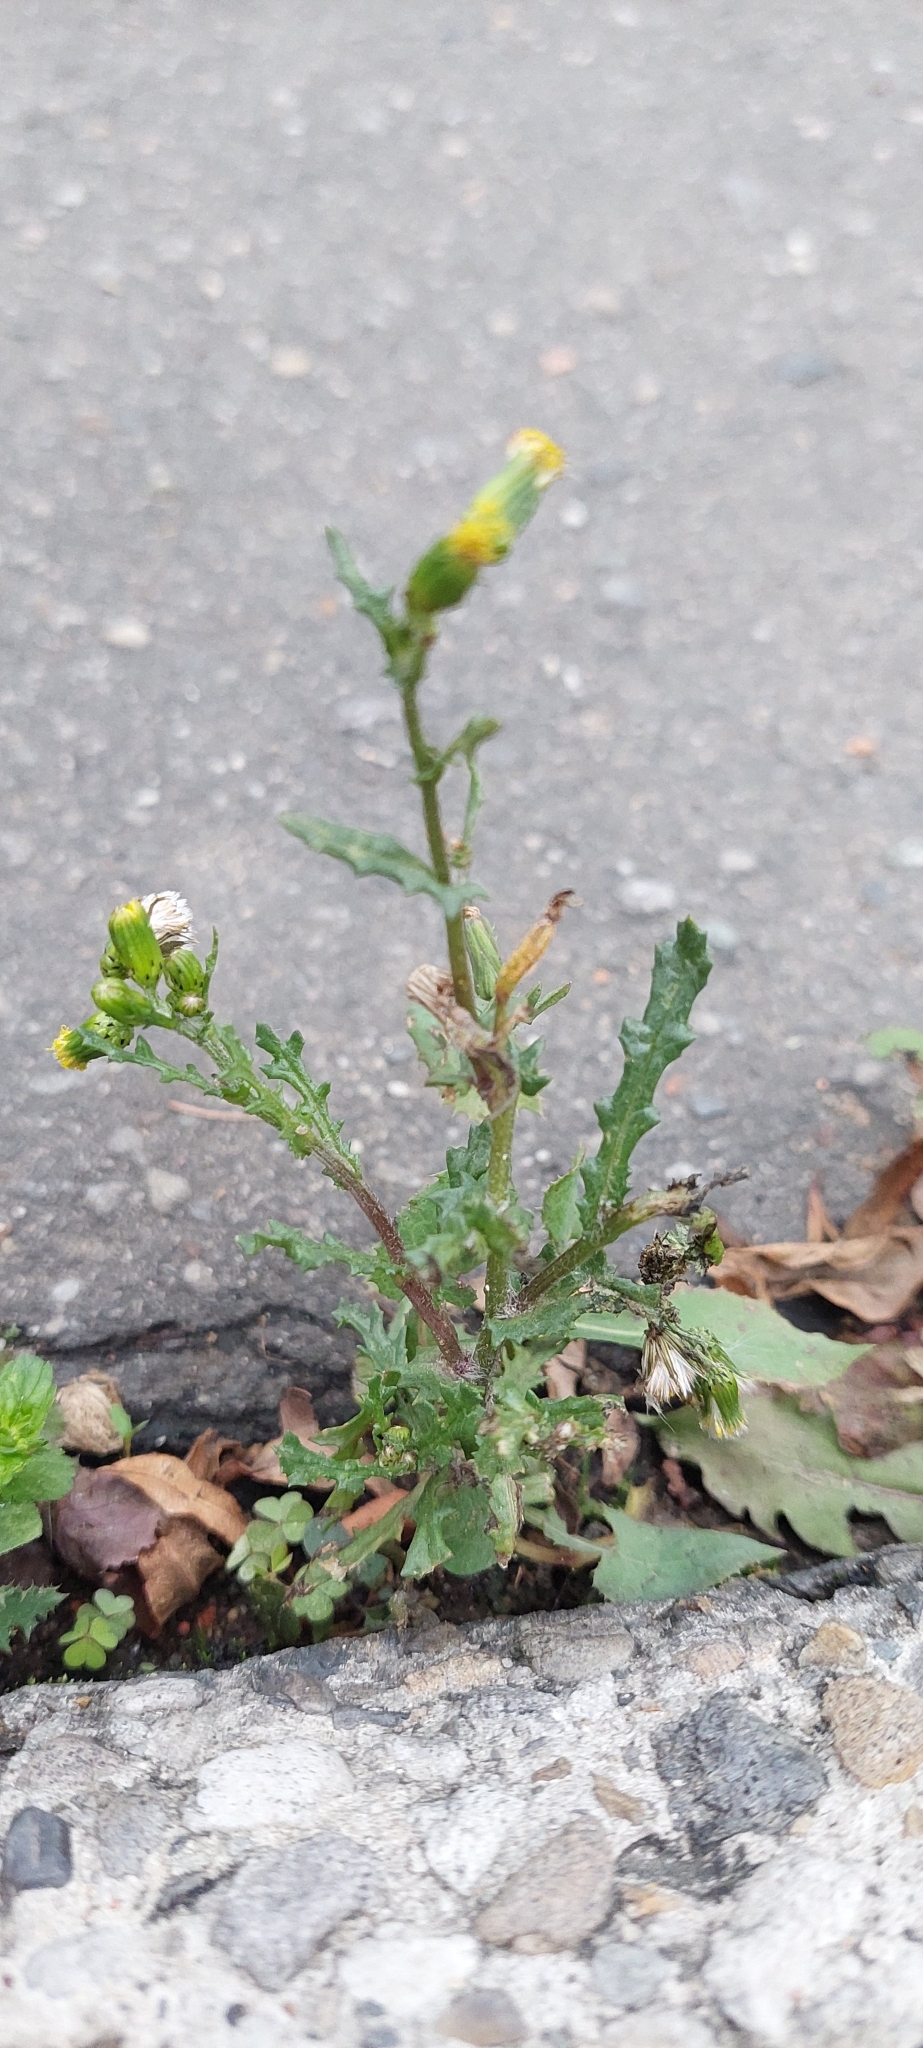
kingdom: Plantae
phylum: Tracheophyta
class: Magnoliopsida
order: Asterales
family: Asteraceae
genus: Senecio
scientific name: Senecio vulgaris
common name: Old-man-in-the-spring
